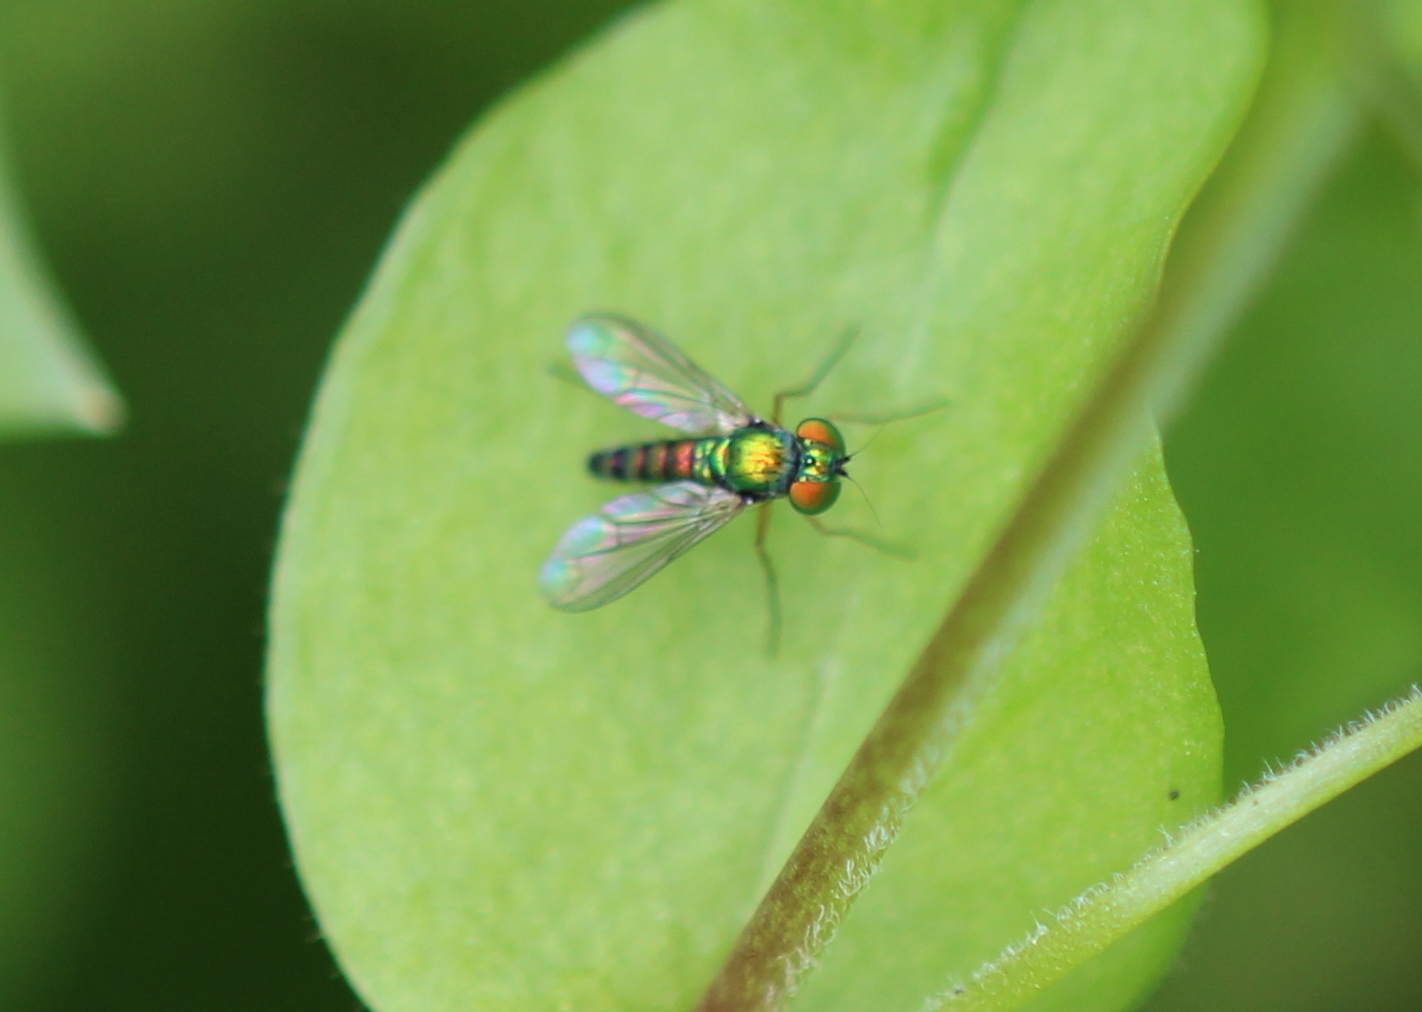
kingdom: Animalia
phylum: Arthropoda
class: Insecta
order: Diptera
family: Dolichopodidae
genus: Condylostylus
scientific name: Condylostylus flavipes
